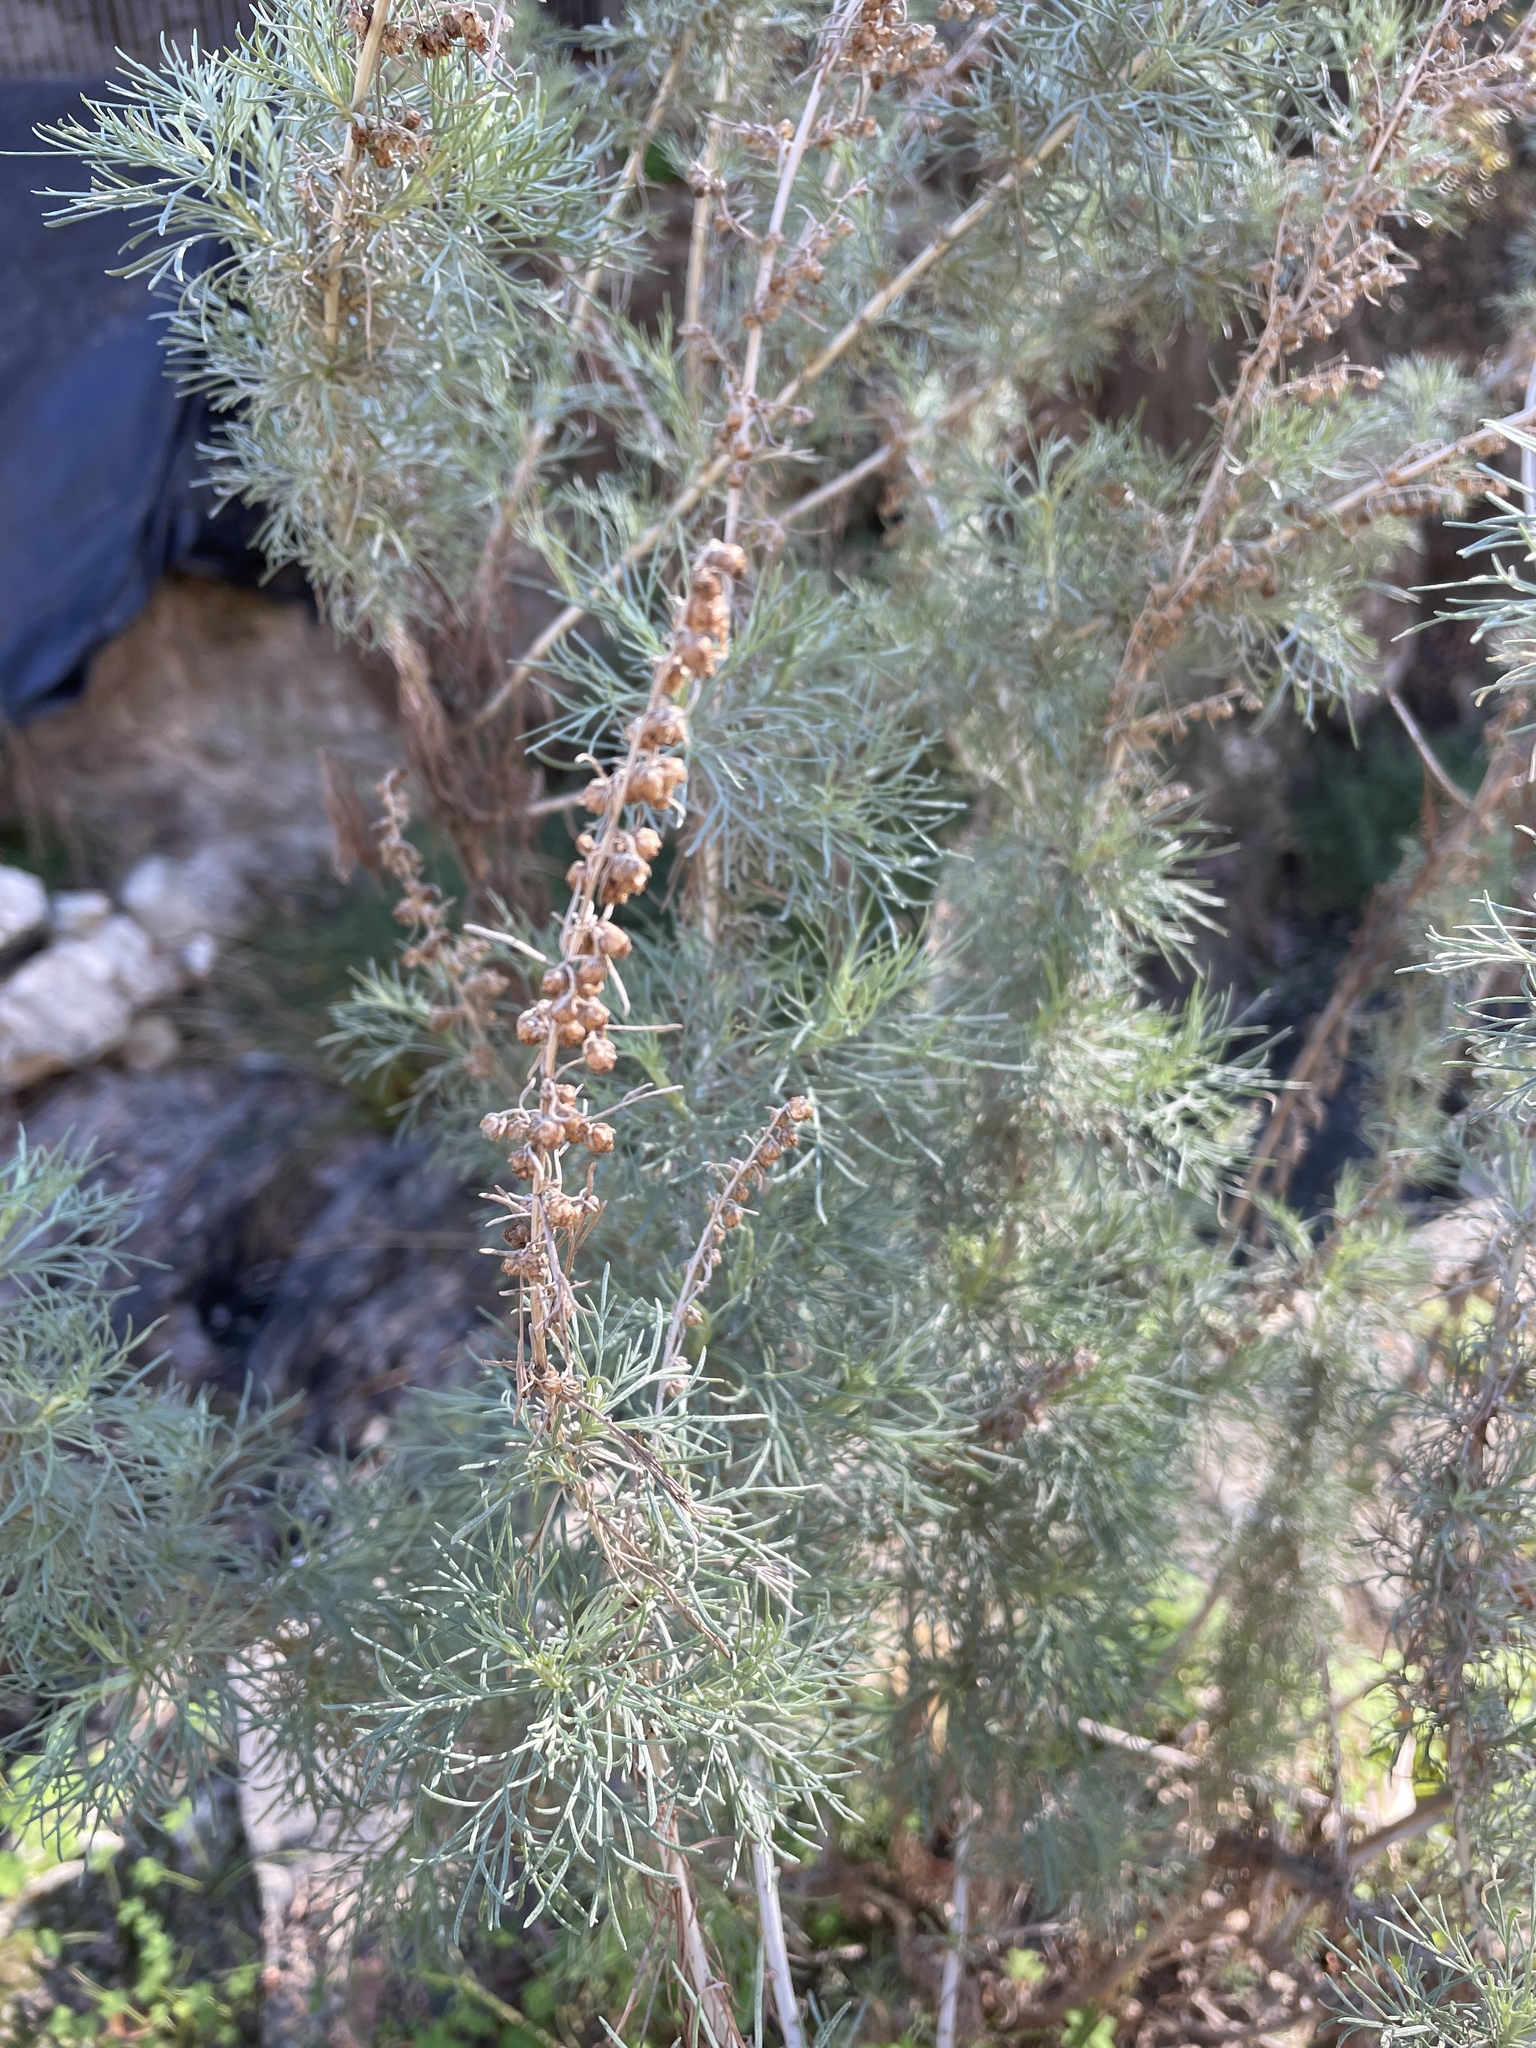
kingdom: Plantae
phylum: Tracheophyta
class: Magnoliopsida
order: Asterales
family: Asteraceae
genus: Artemisia
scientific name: Artemisia californica
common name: California sagebrush
